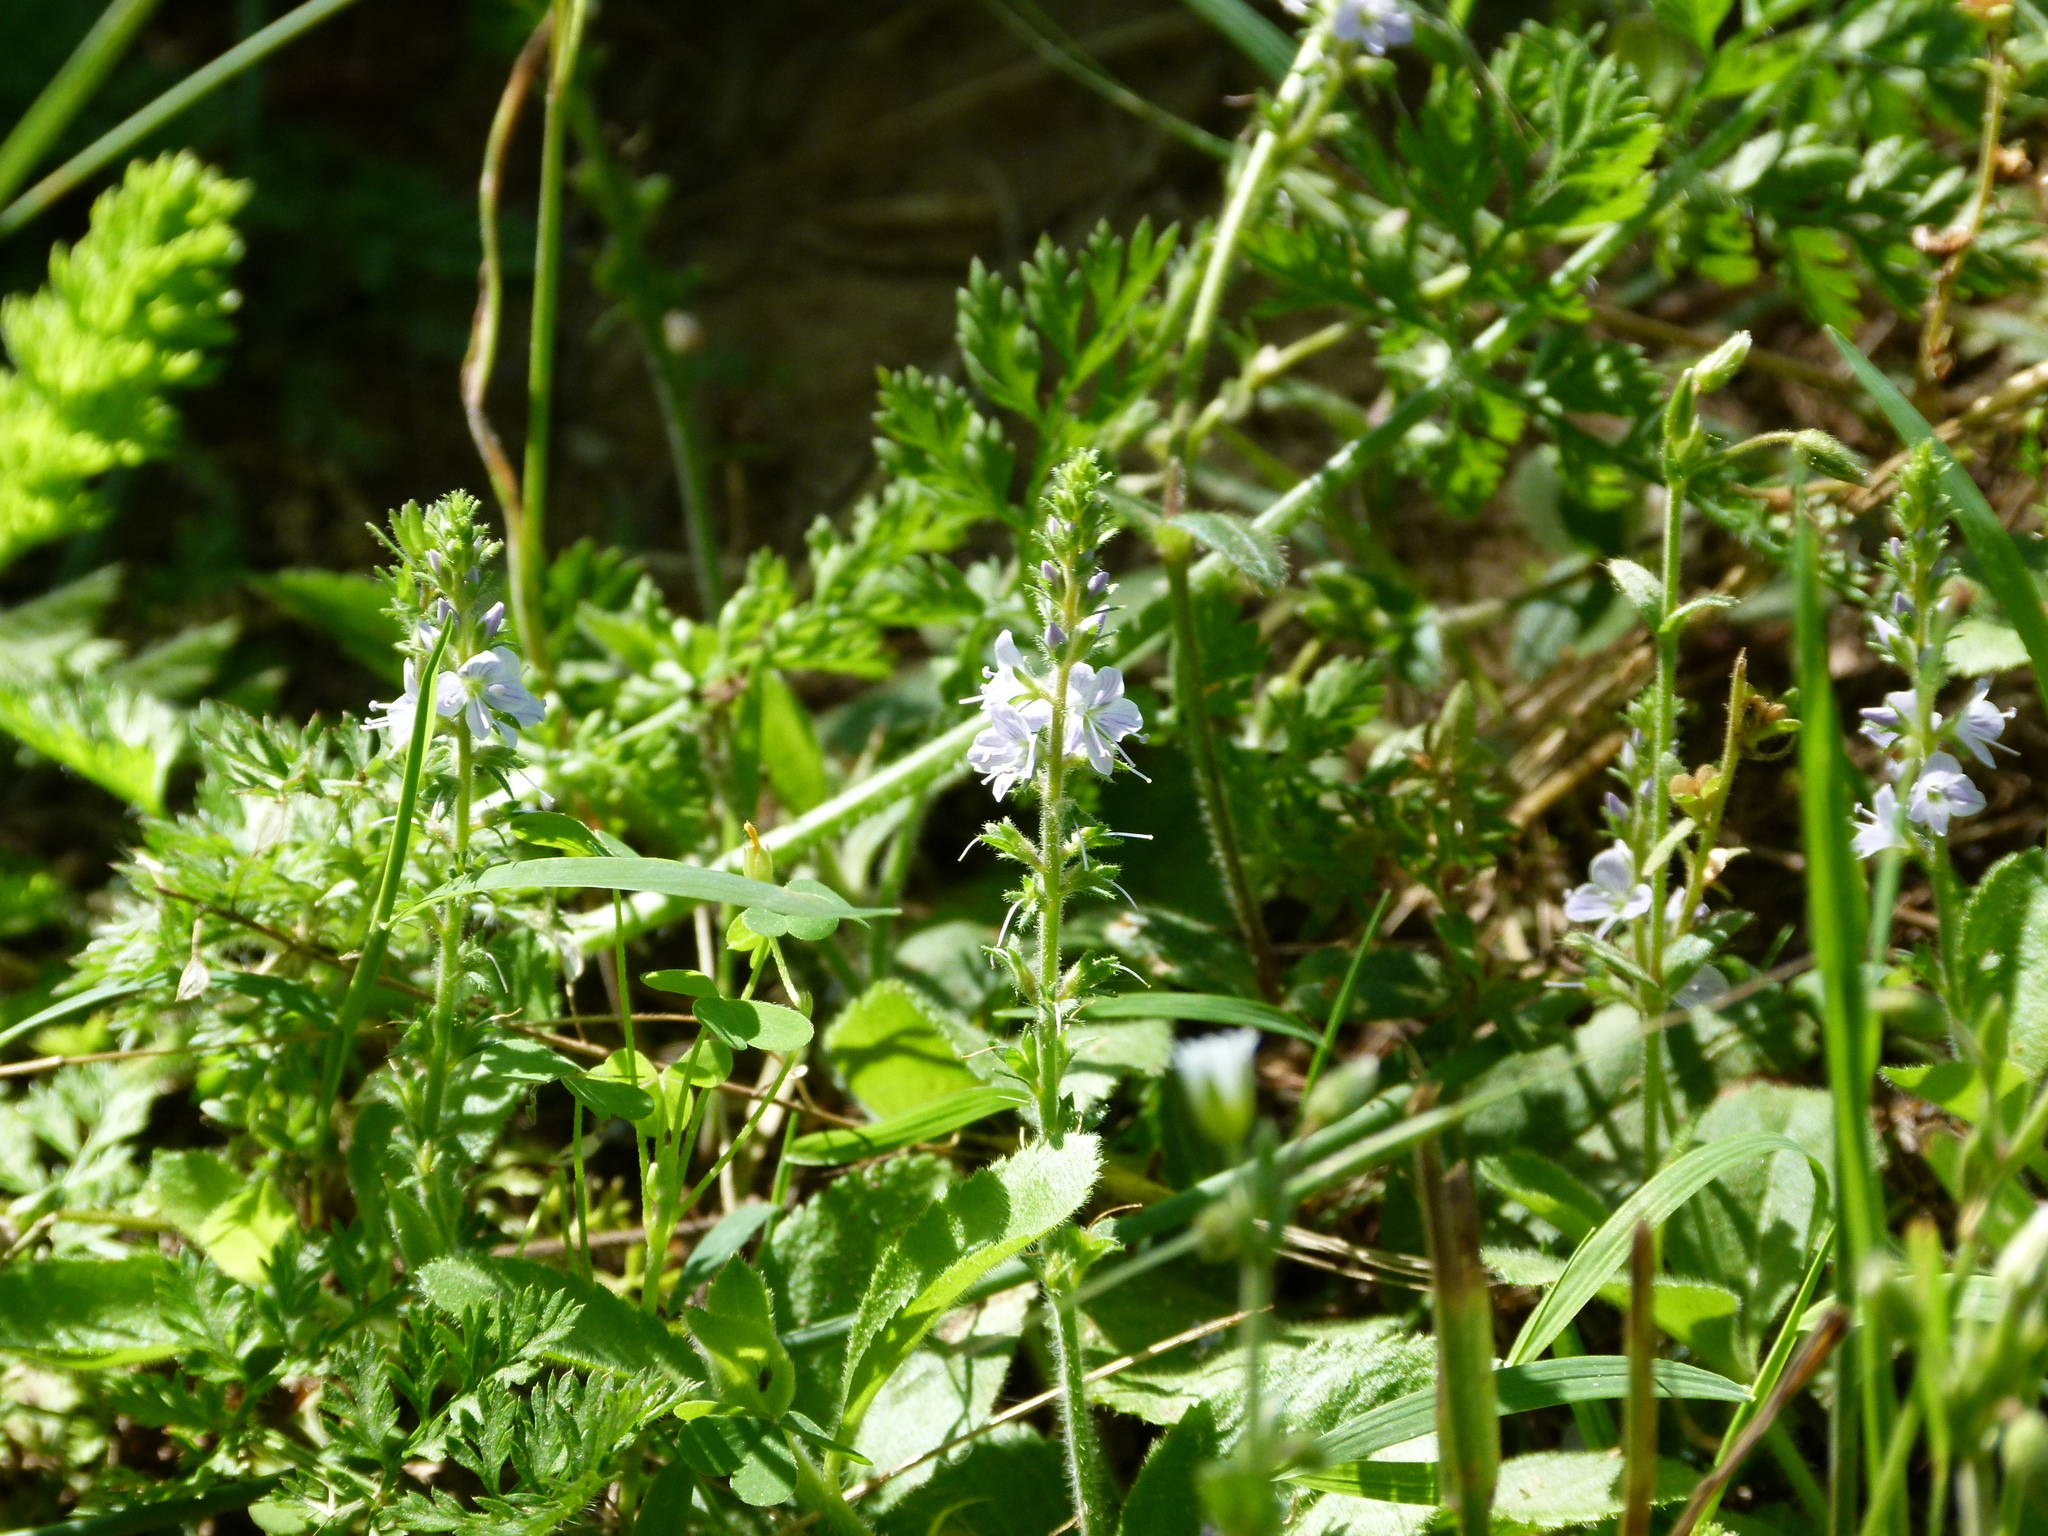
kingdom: Plantae
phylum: Tracheophyta
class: Magnoliopsida
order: Lamiales
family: Plantaginaceae
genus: Veronica
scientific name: Veronica officinalis
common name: Common speedwell
